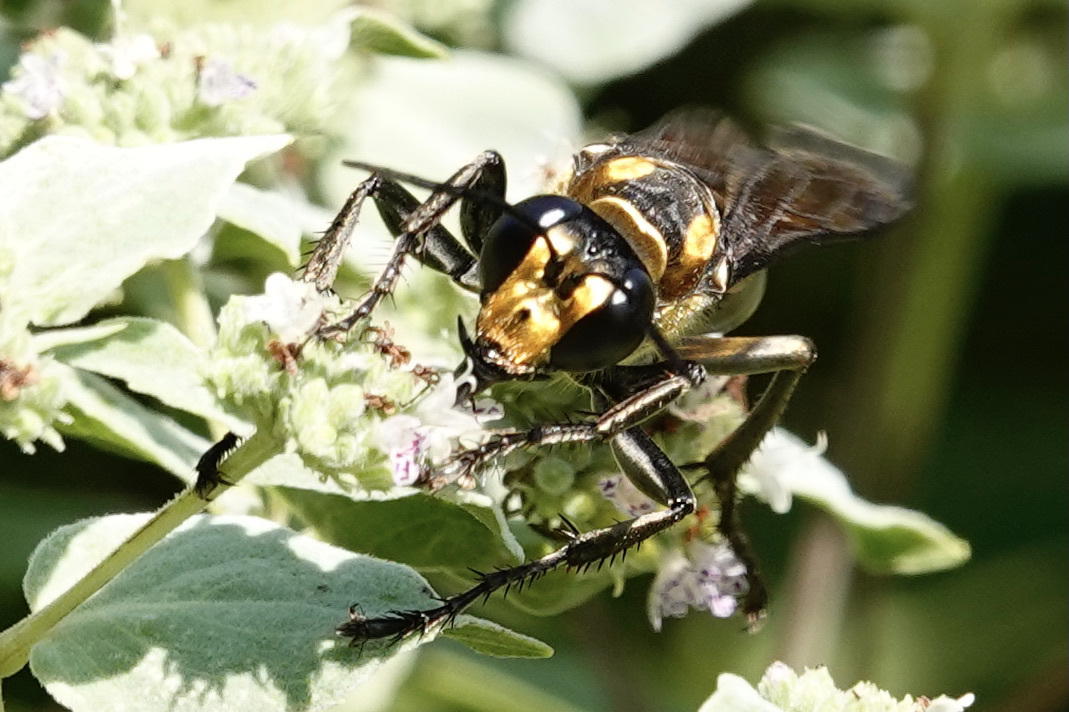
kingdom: Animalia
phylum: Arthropoda
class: Insecta
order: Hymenoptera
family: Sphecidae
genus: Sphex
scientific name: Sphex habenus
